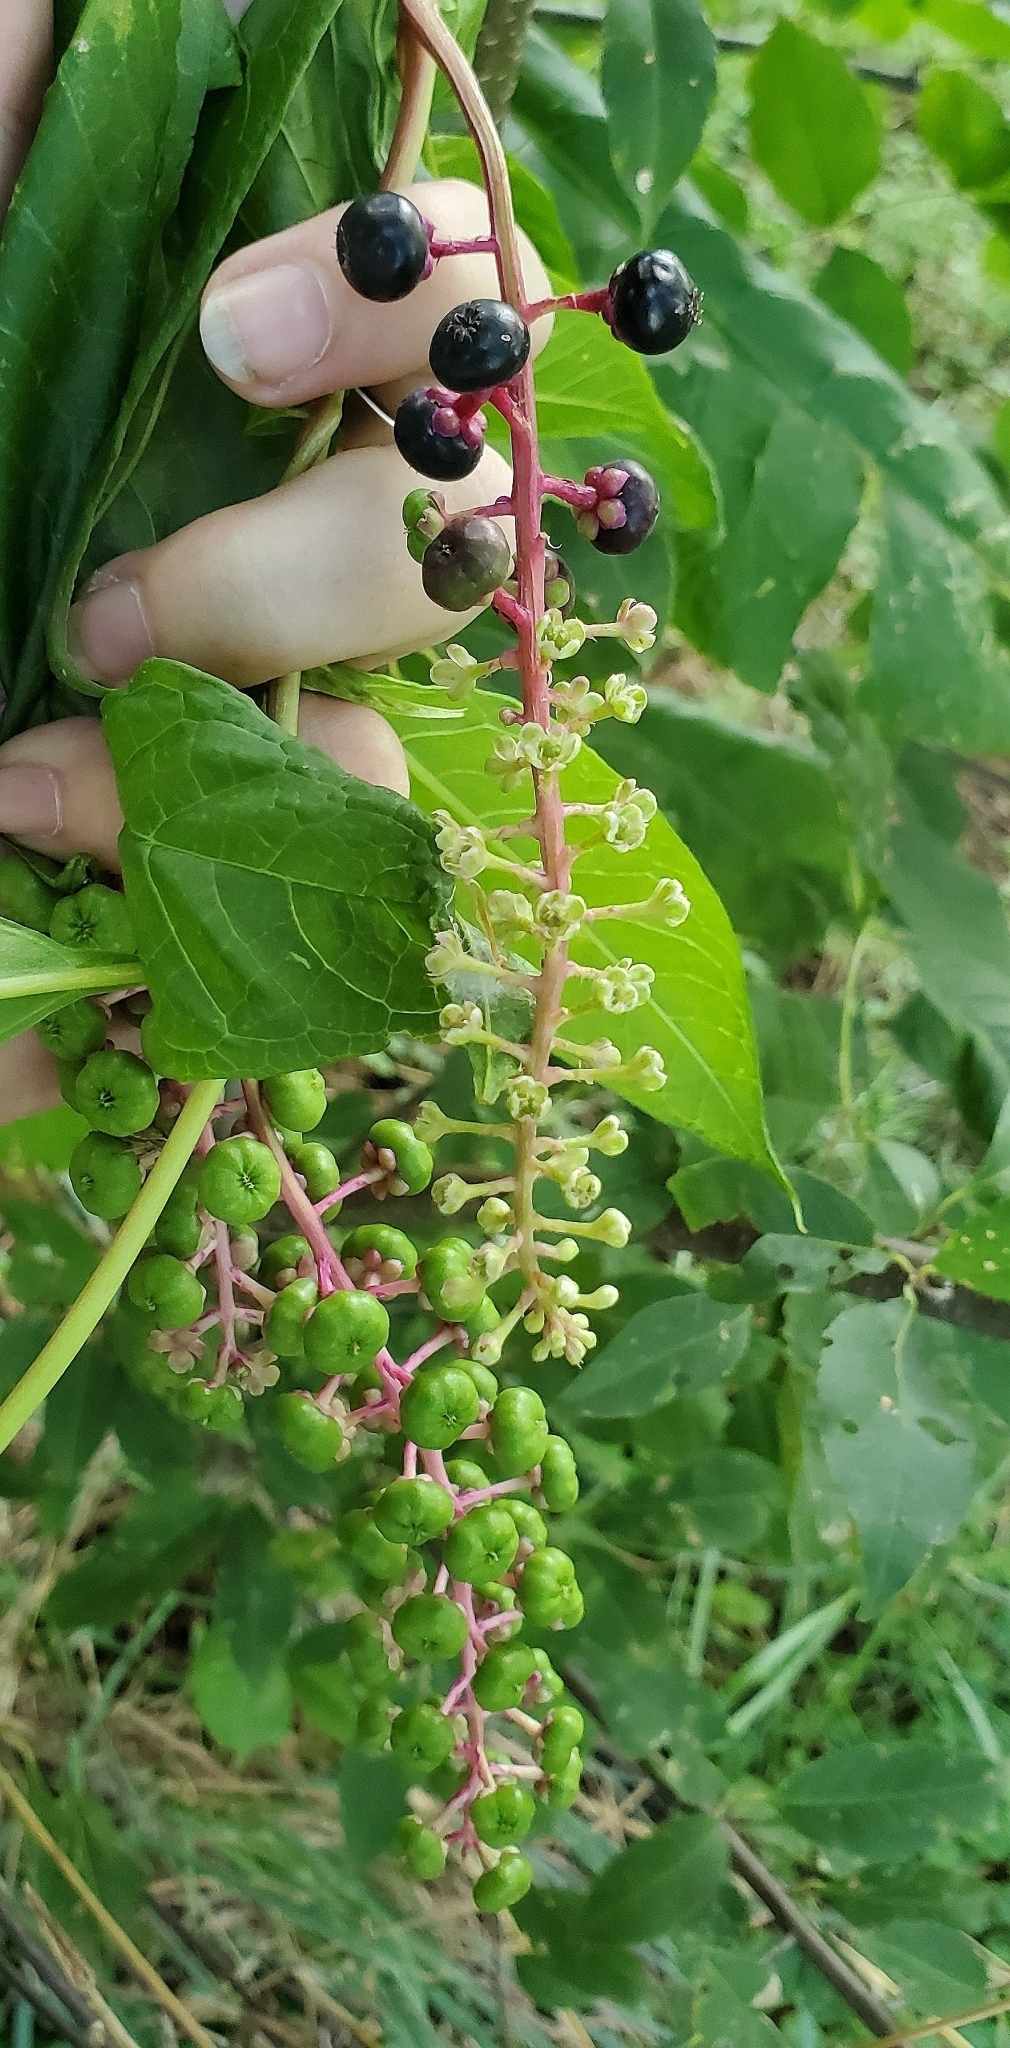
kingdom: Plantae
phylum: Tracheophyta
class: Magnoliopsida
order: Caryophyllales
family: Phytolaccaceae
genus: Phytolacca
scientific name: Phytolacca americana
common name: American pokeweed
